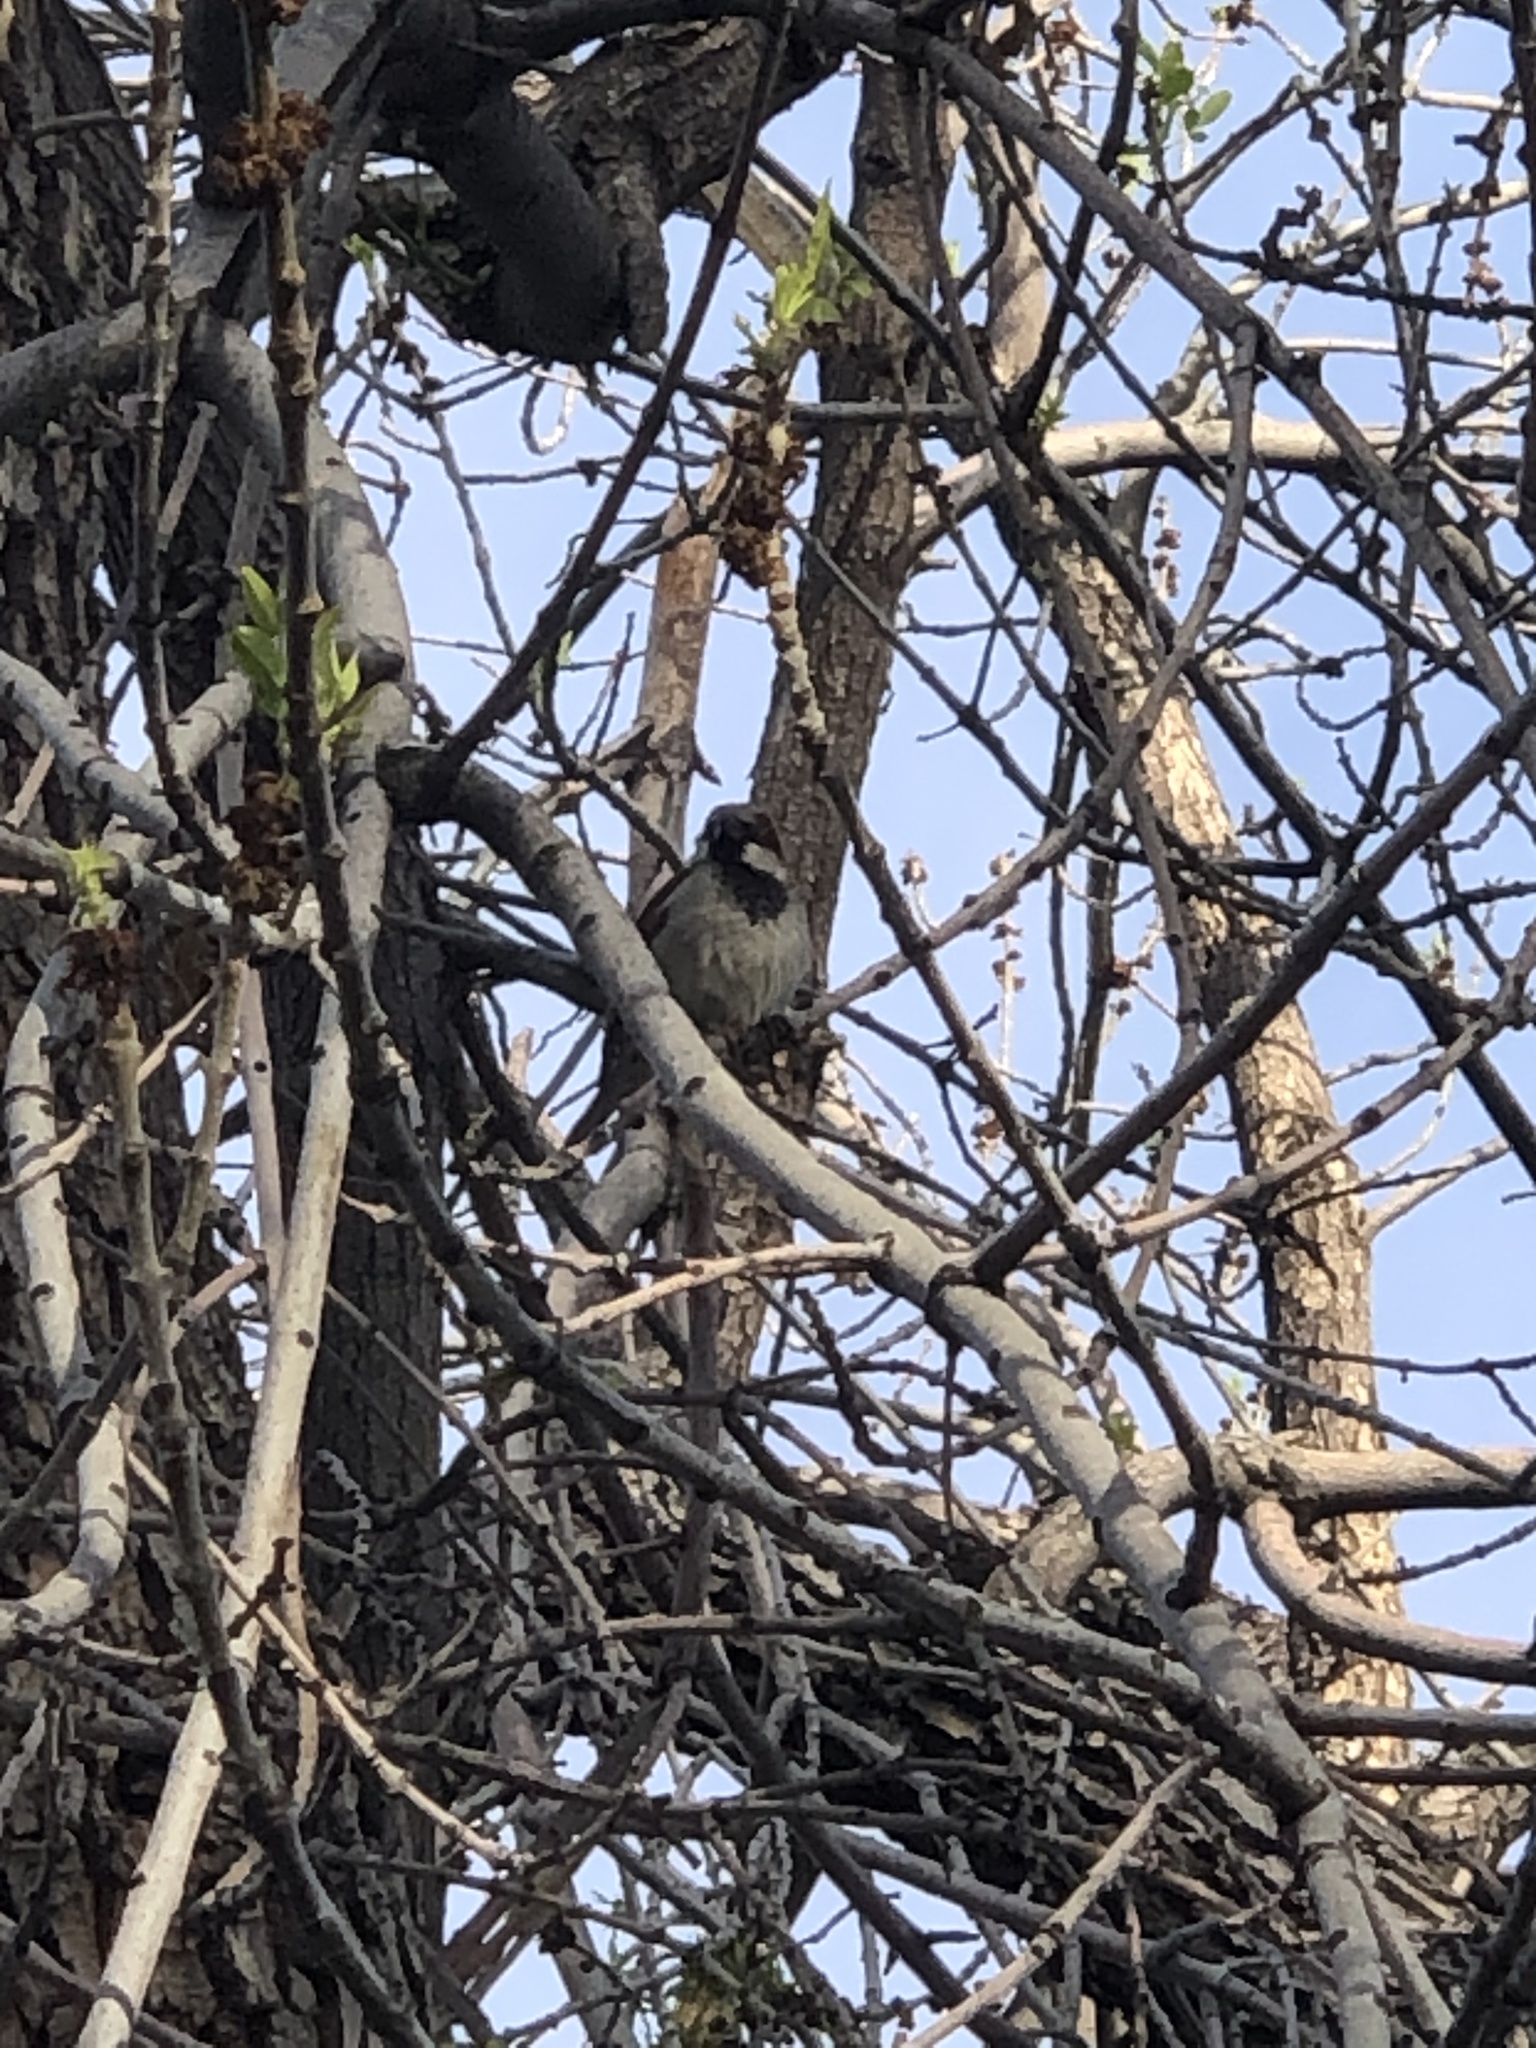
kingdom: Animalia
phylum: Chordata
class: Aves
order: Passeriformes
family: Passeridae
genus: Passer
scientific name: Passer domesticus
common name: House sparrow
